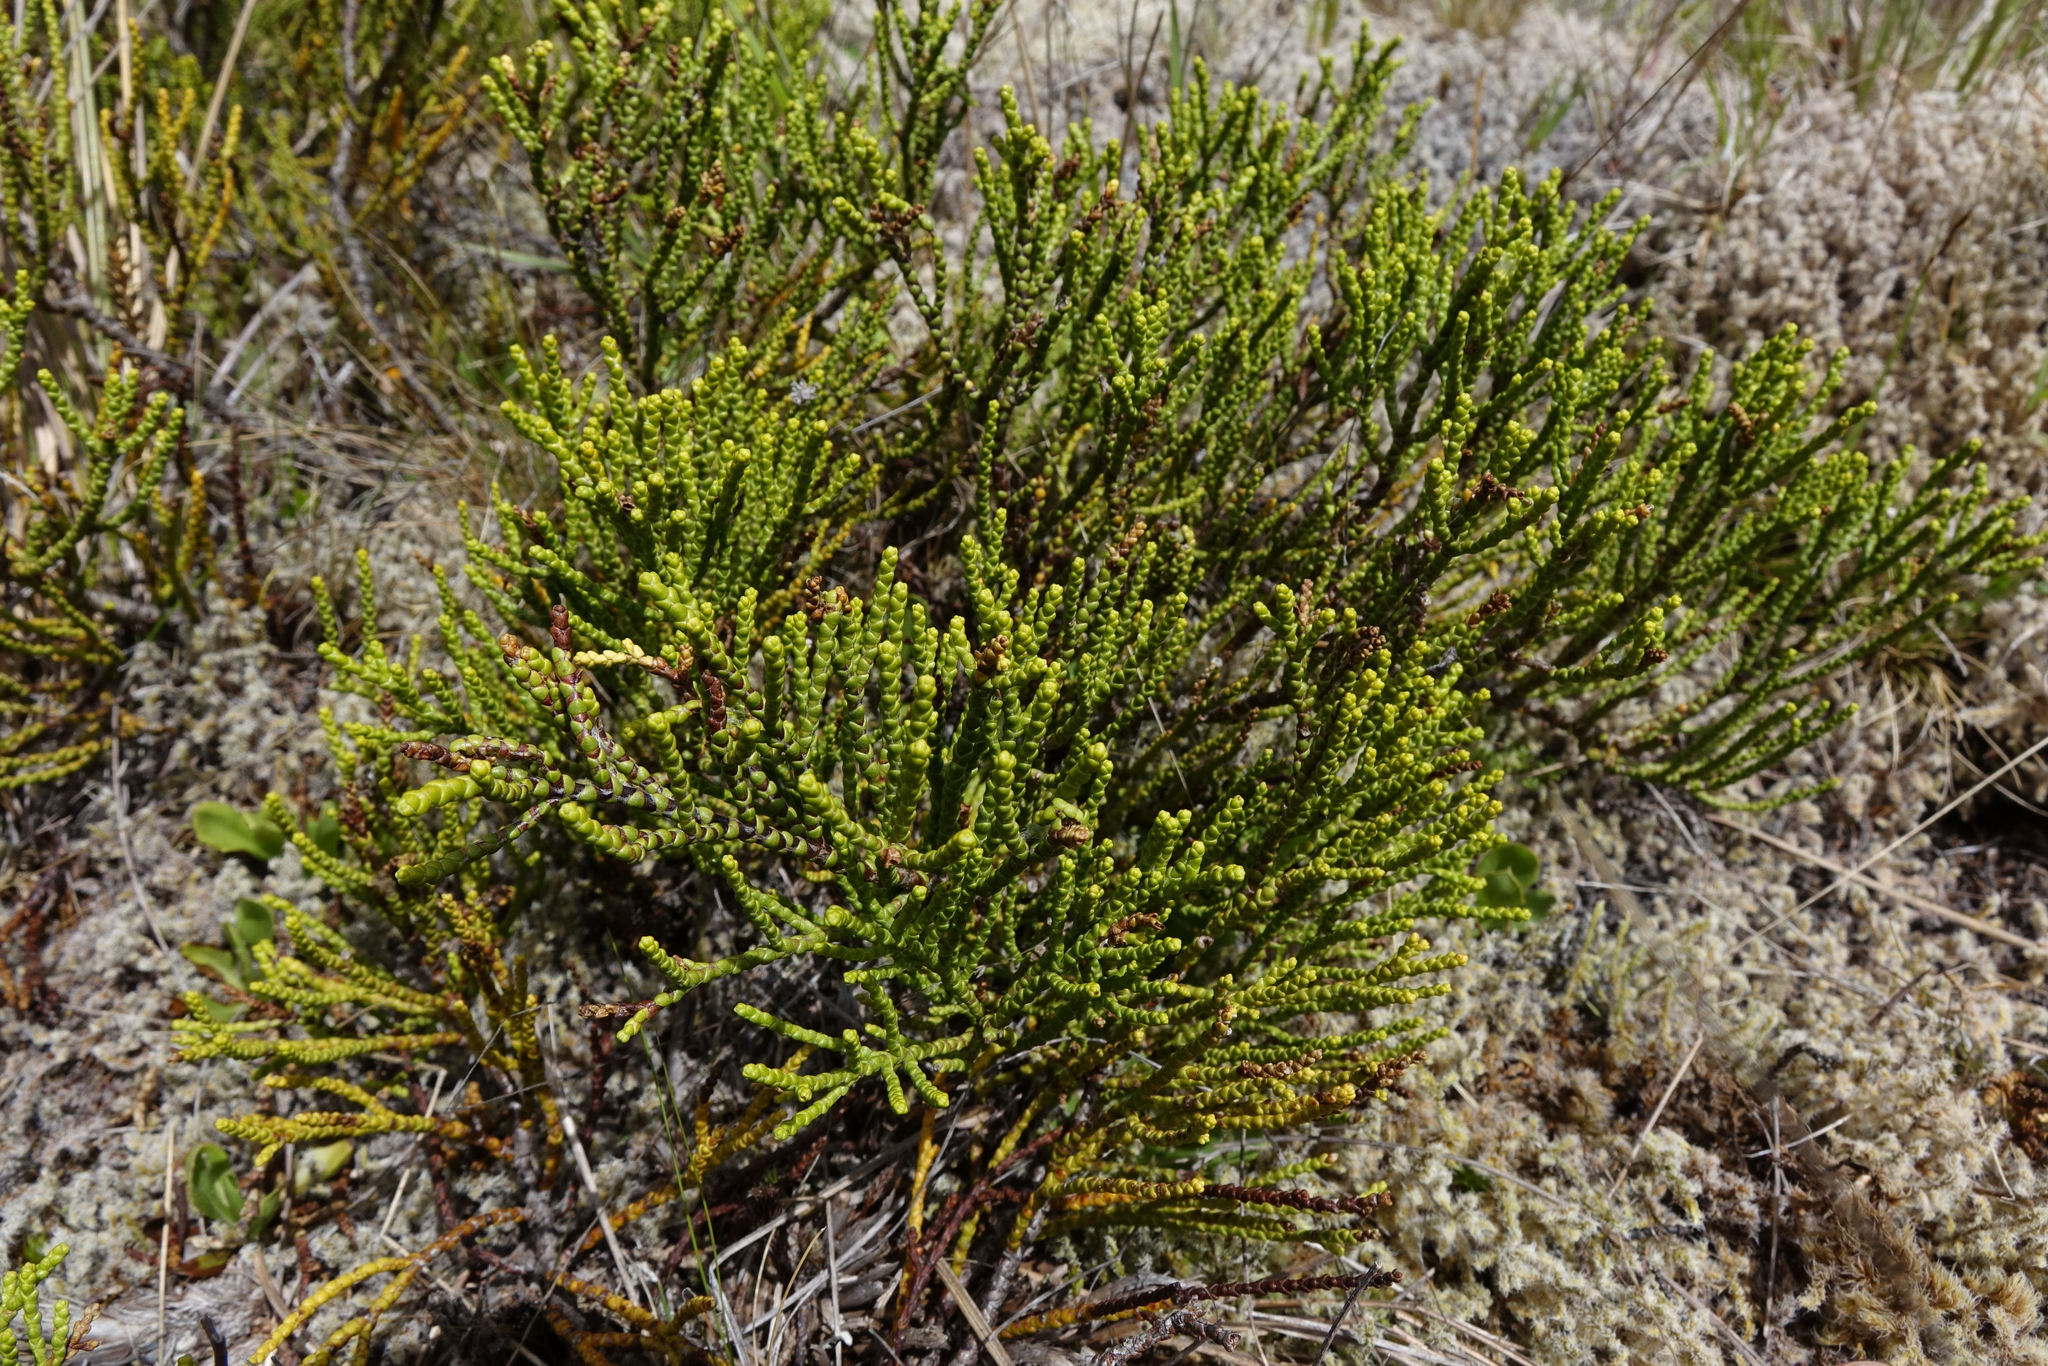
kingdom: Plantae
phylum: Tracheophyta
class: Magnoliopsida
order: Lamiales
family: Plantaginaceae
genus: Veronica
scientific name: Veronica propinqua
